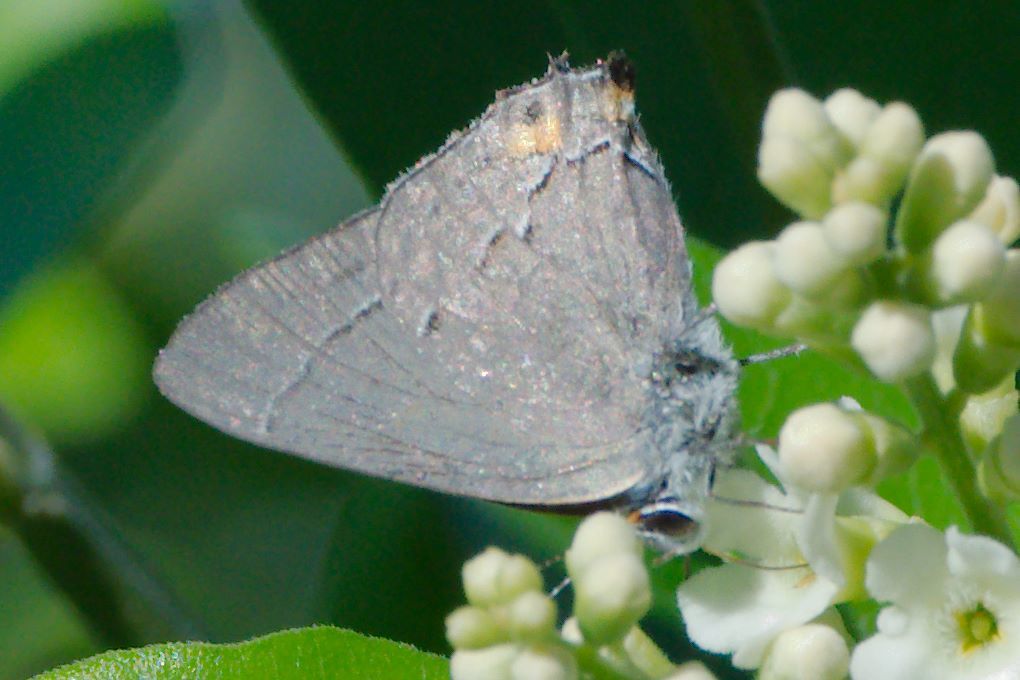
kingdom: Animalia
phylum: Arthropoda
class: Insecta
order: Lepidoptera
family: Lycaenidae
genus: Strymon
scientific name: Strymon melinus
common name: Gray hairstreak
